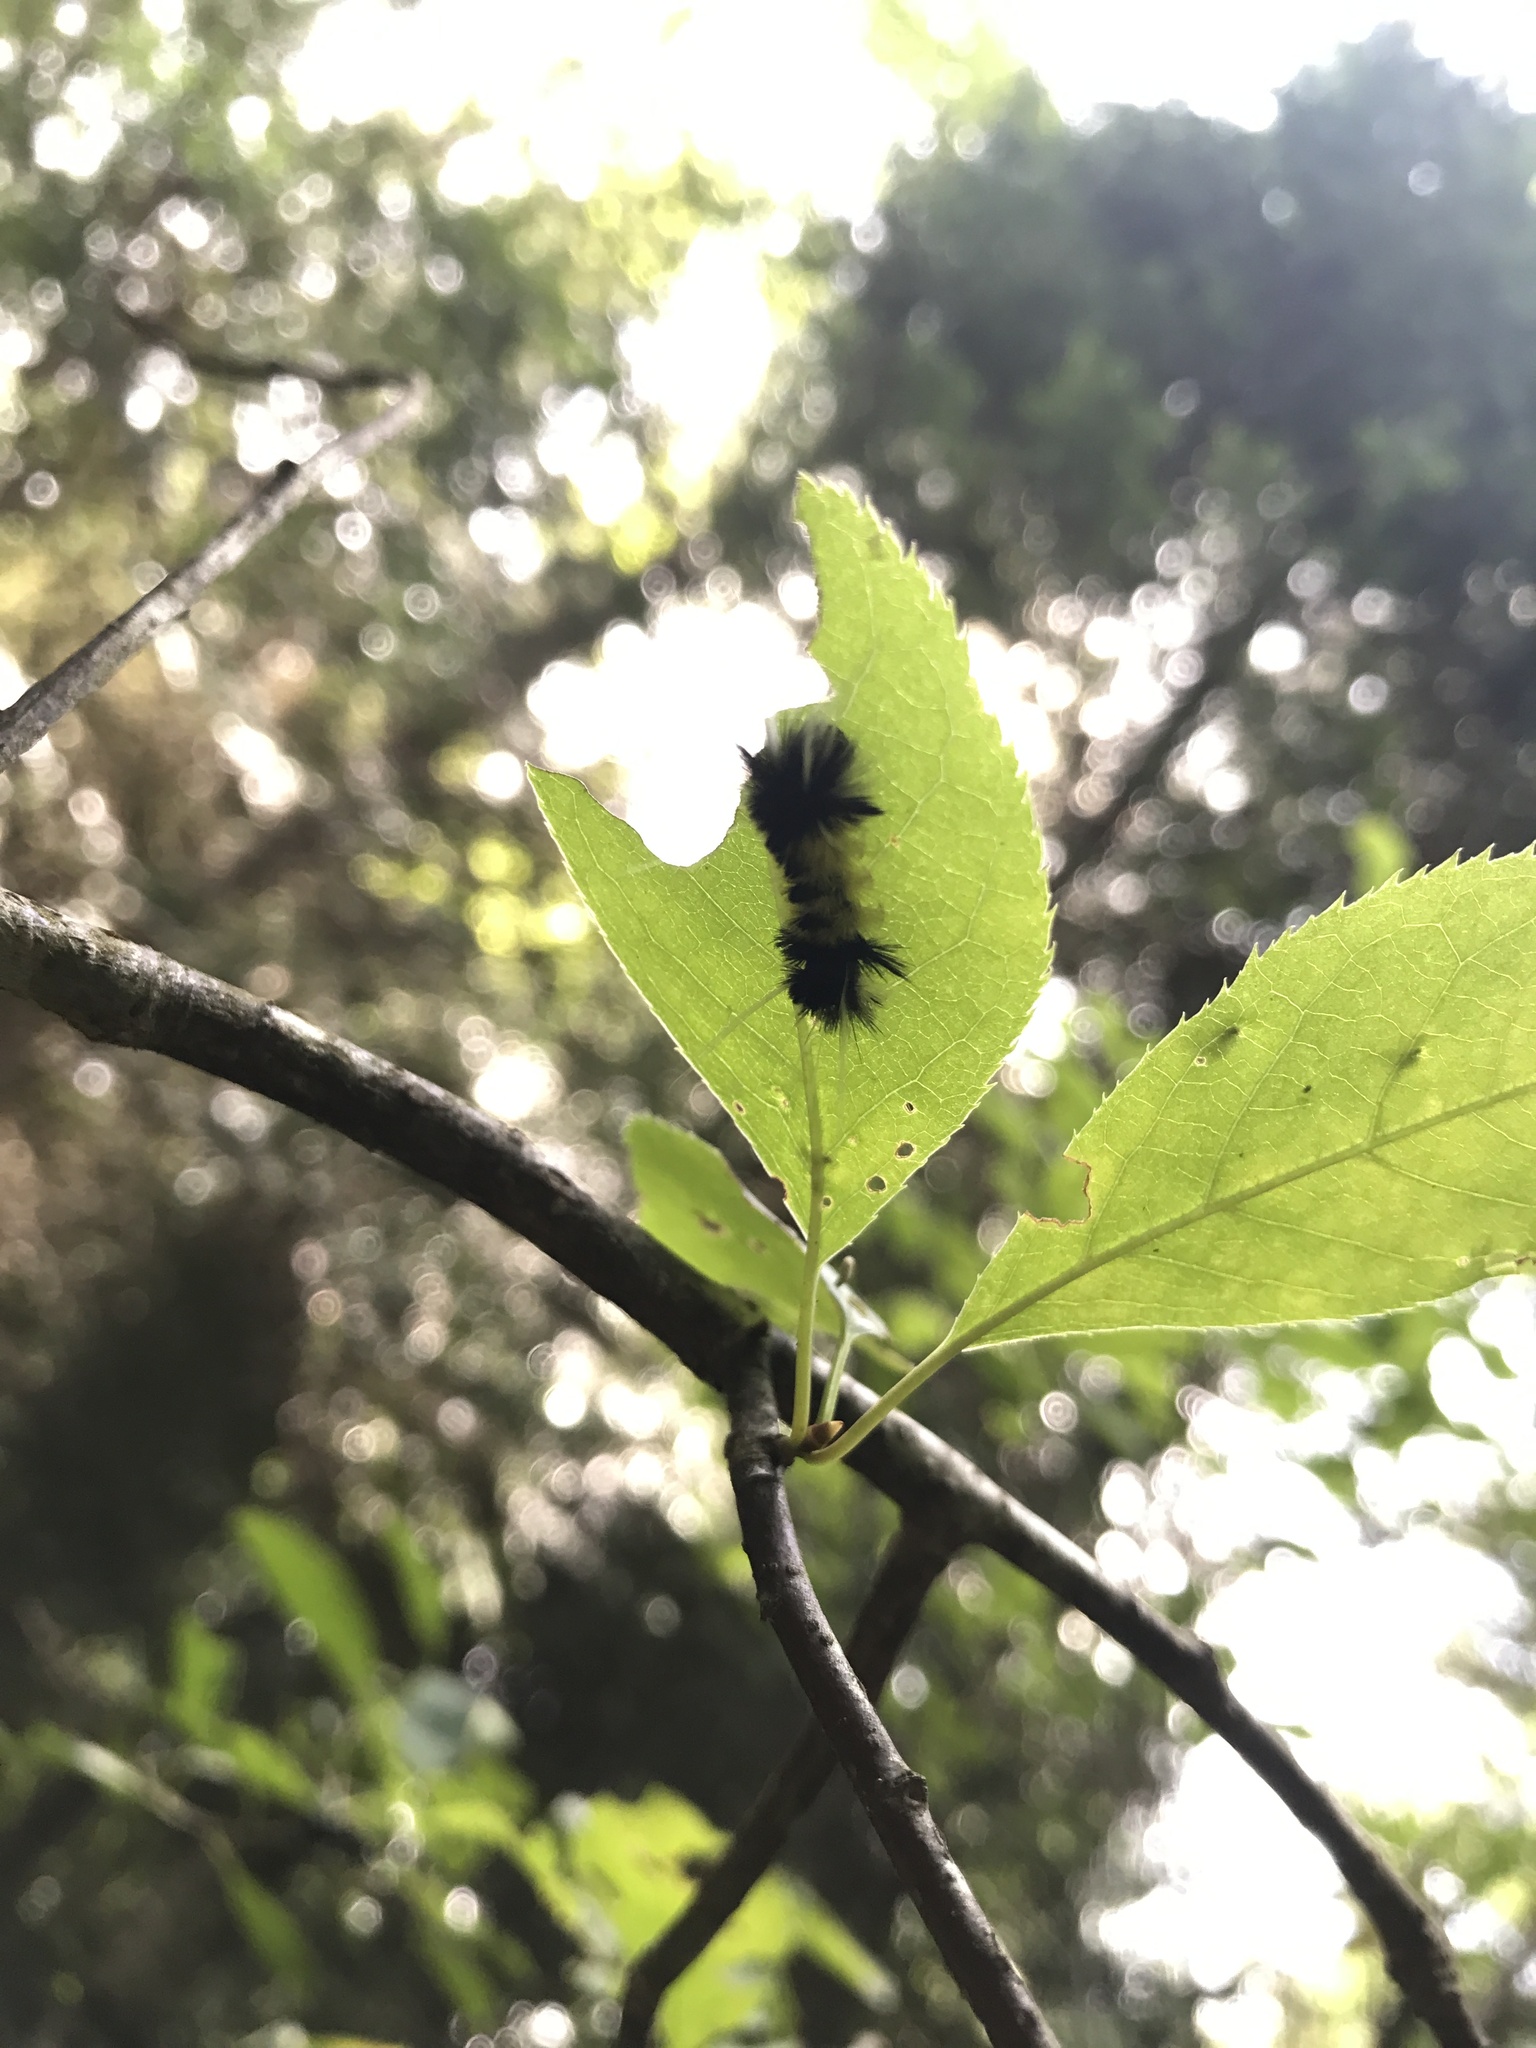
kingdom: Animalia
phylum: Arthropoda
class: Insecta
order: Lepidoptera
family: Erebidae
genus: Lophocampa
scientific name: Lophocampa maculata
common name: Spotted tussock moth
